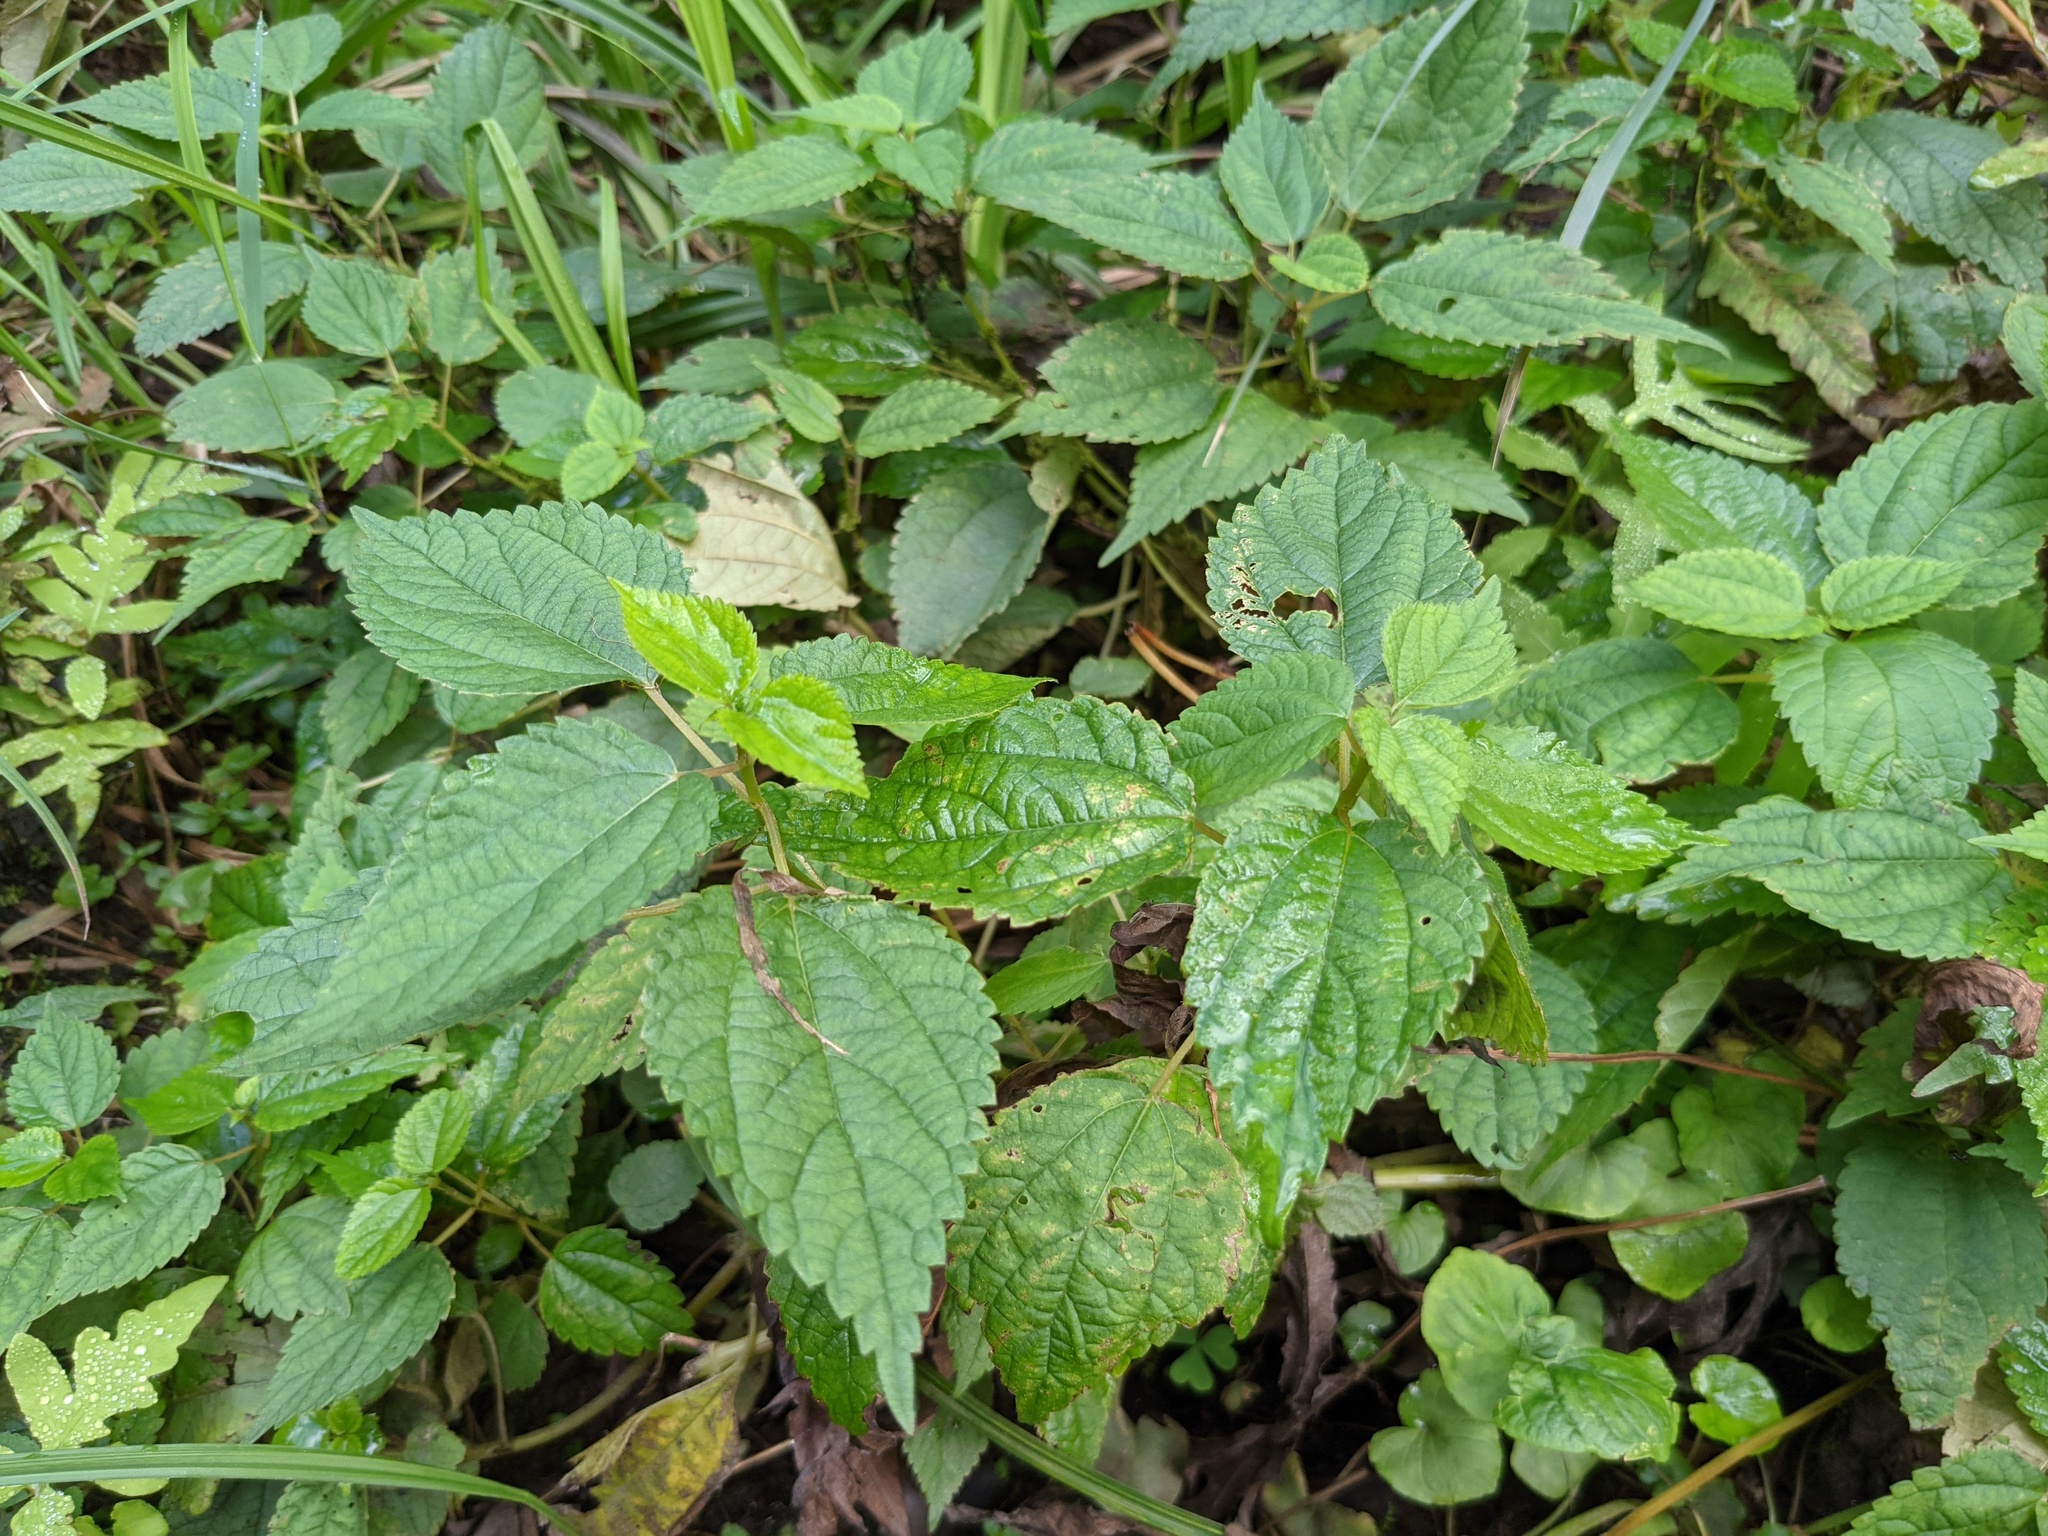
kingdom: Plantae
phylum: Tracheophyta
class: Magnoliopsida
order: Rosales
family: Urticaceae
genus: Pilea
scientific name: Pilea pumila
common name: Clearweed
